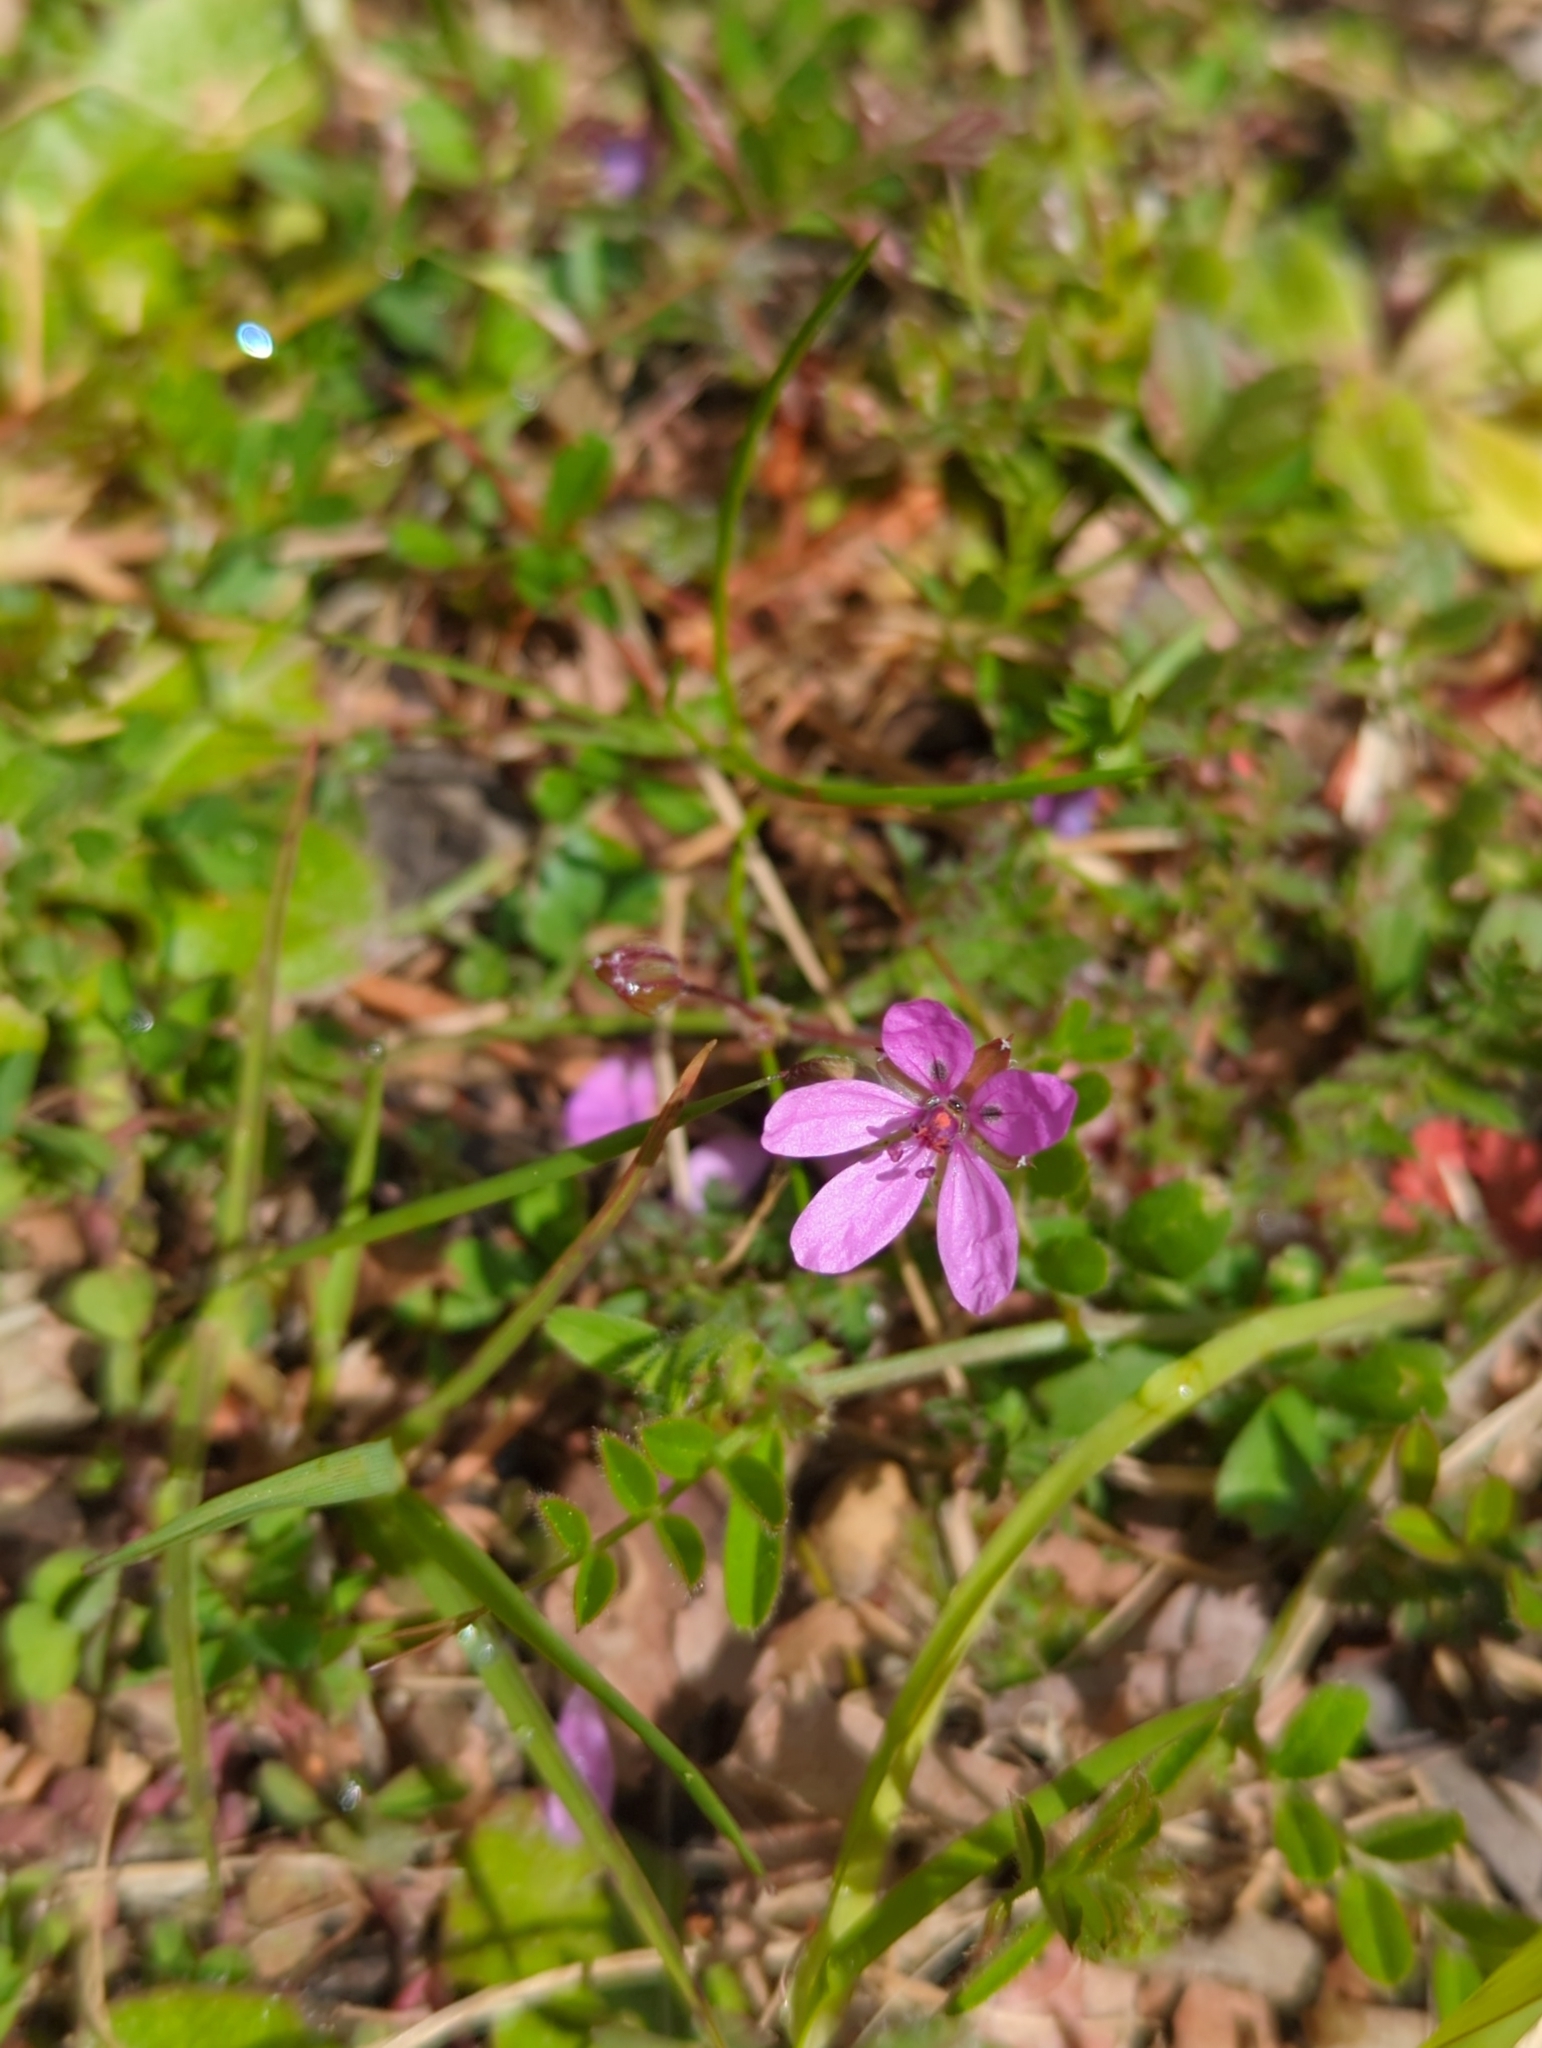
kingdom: Plantae
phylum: Tracheophyta
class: Magnoliopsida
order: Geraniales
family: Geraniaceae
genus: Erodium
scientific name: Erodium cicutarium
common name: Common stork's-bill
